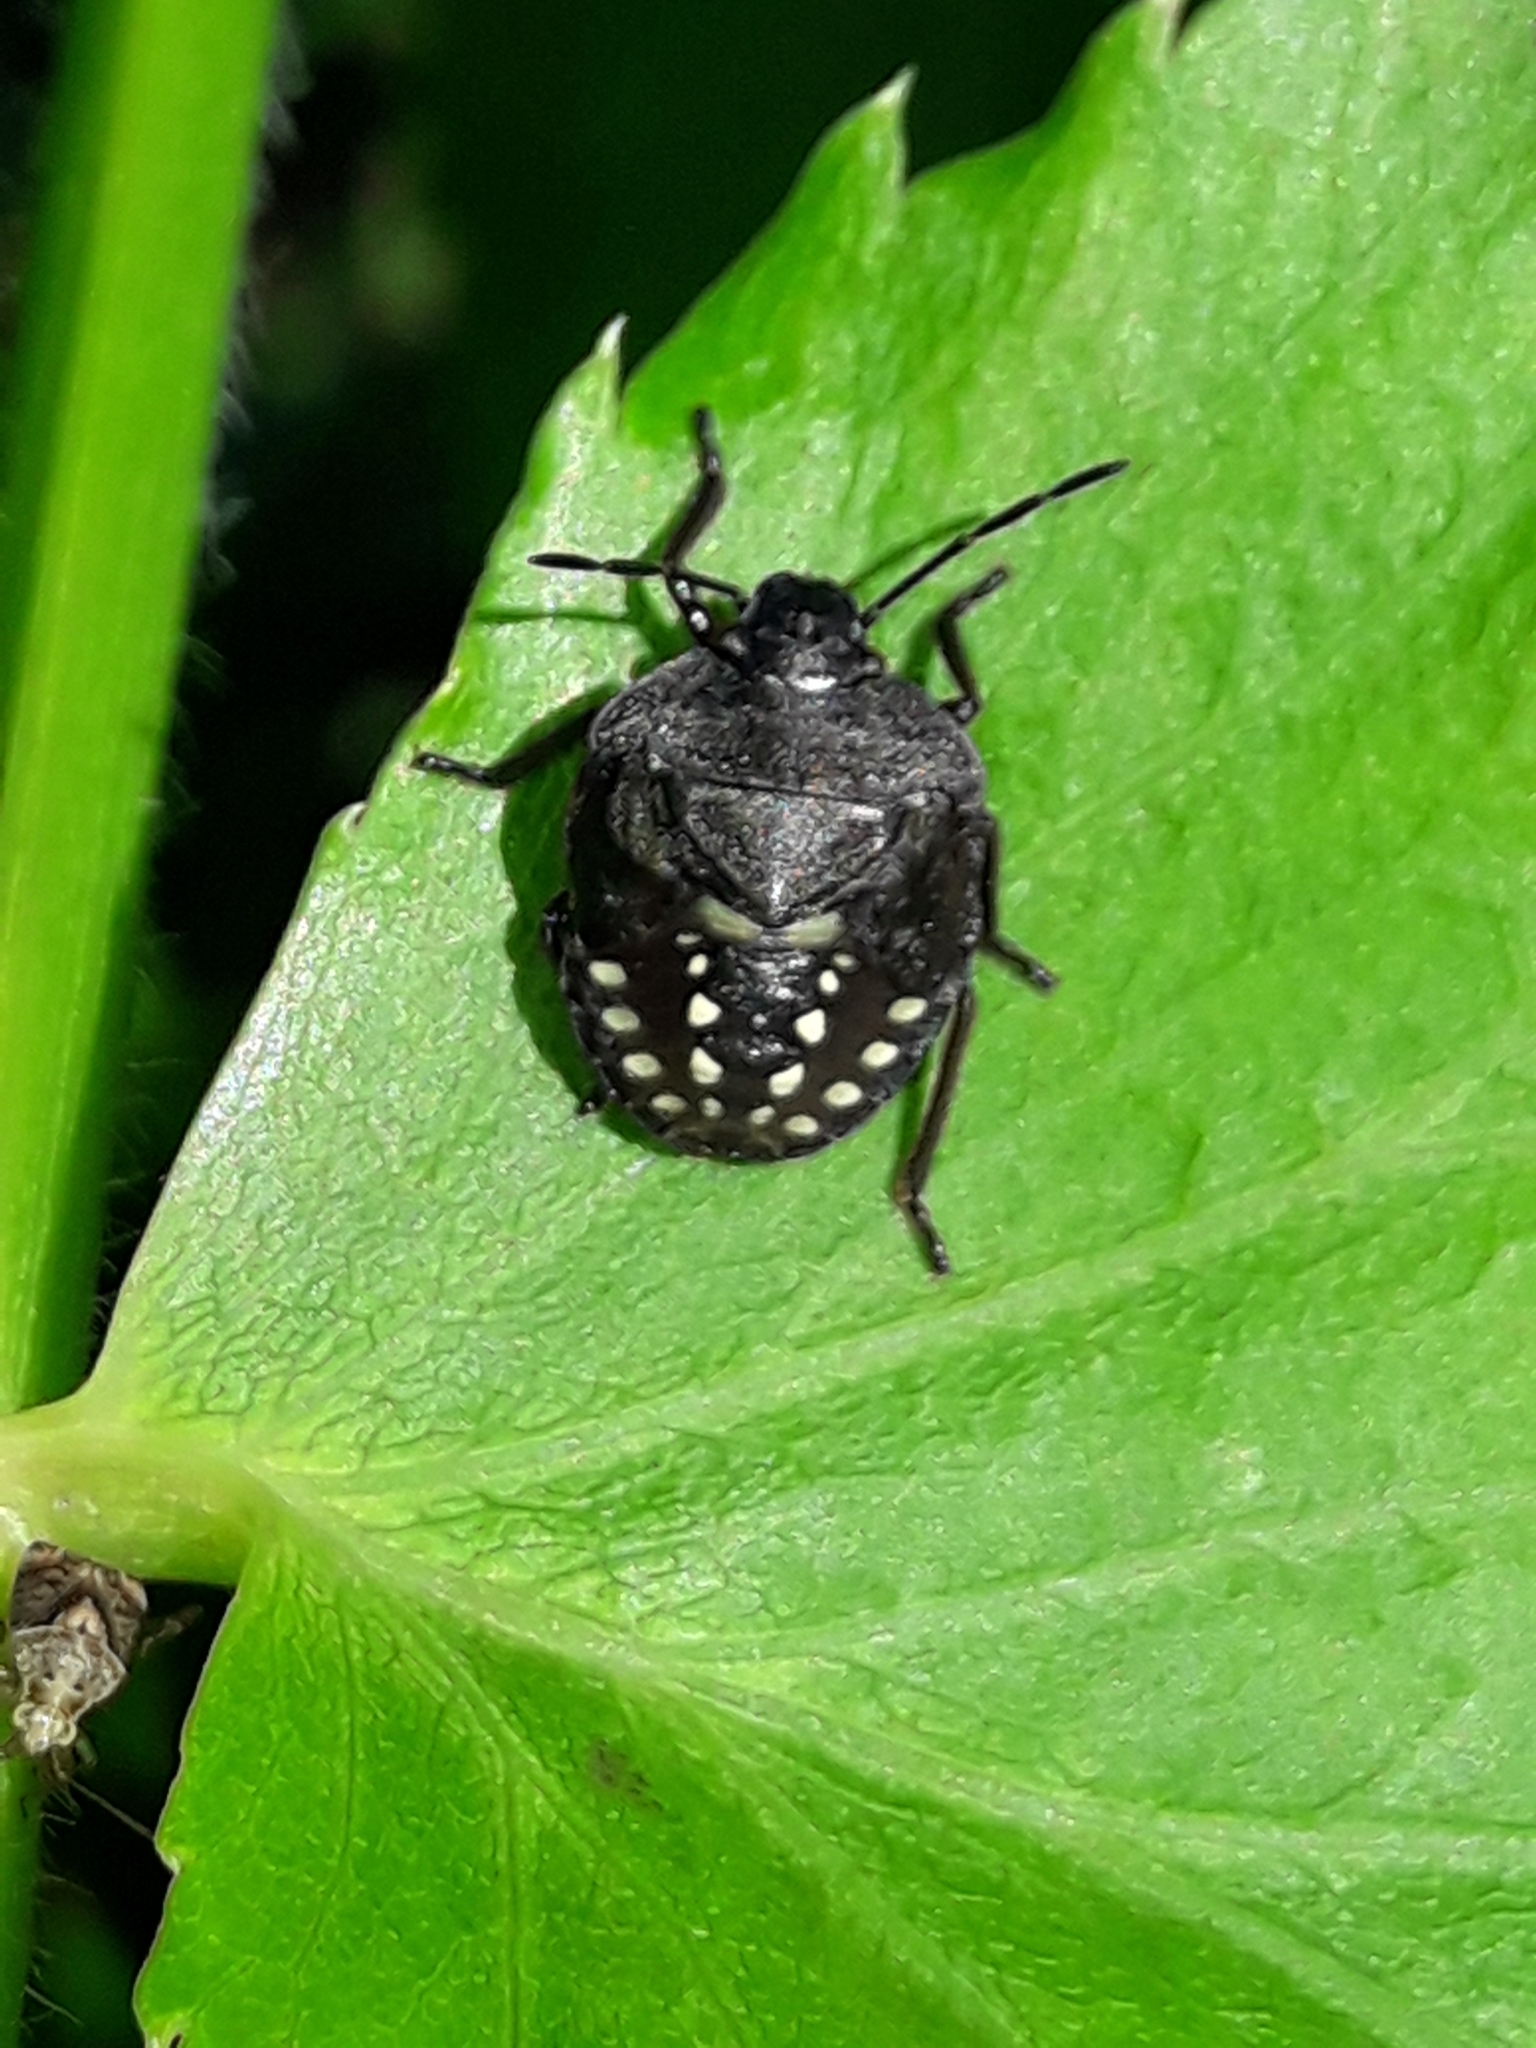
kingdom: Animalia
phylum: Arthropoda
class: Insecta
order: Hemiptera
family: Pentatomidae
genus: Nezara
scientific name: Nezara viridula
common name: Southern green stink bug
